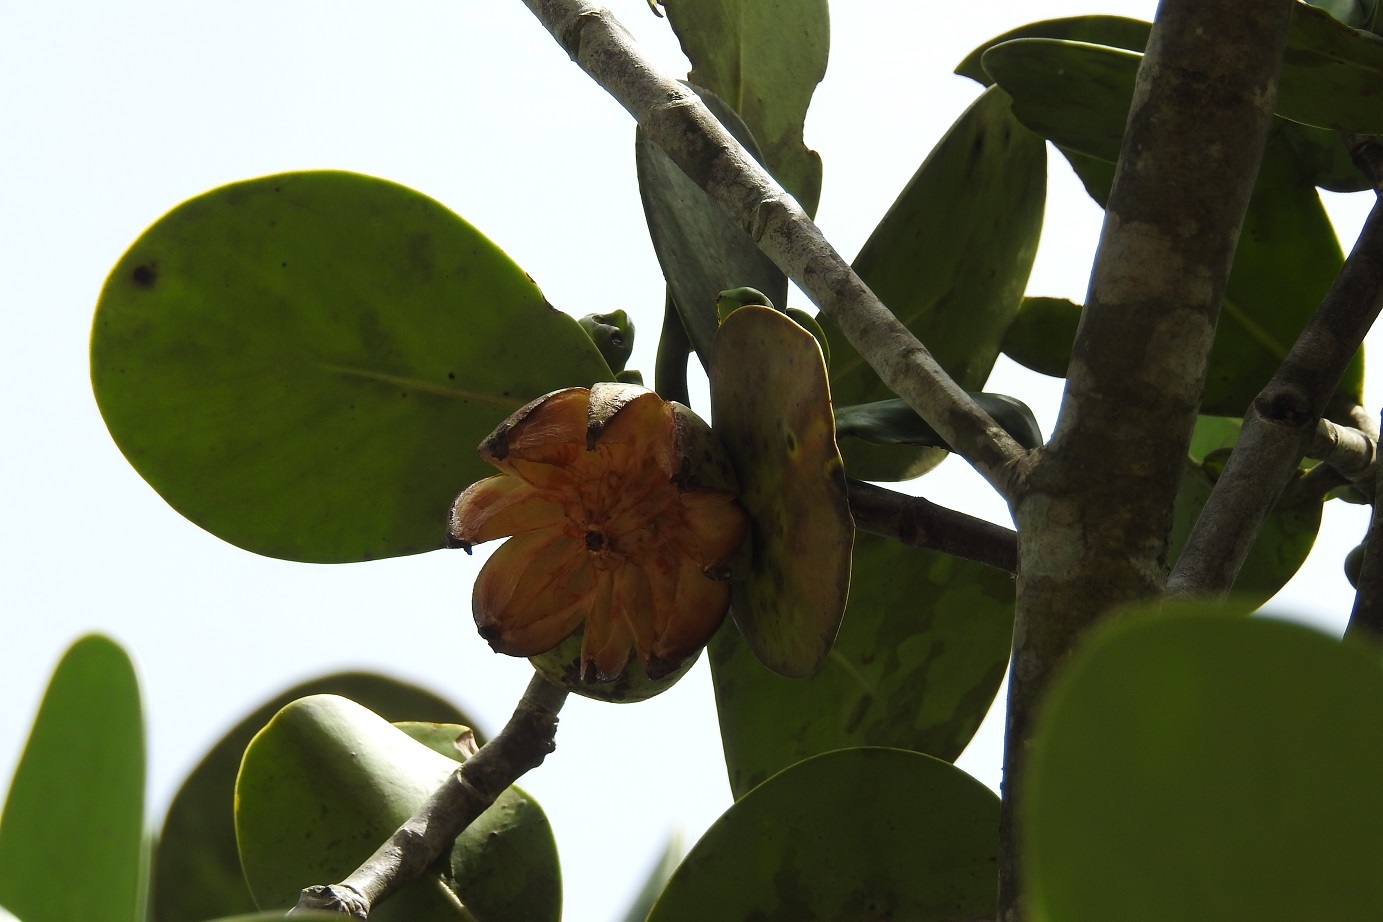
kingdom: Plantae
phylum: Tracheophyta
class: Magnoliopsida
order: Malpighiales
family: Clusiaceae
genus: Clusia
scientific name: Clusia flava
